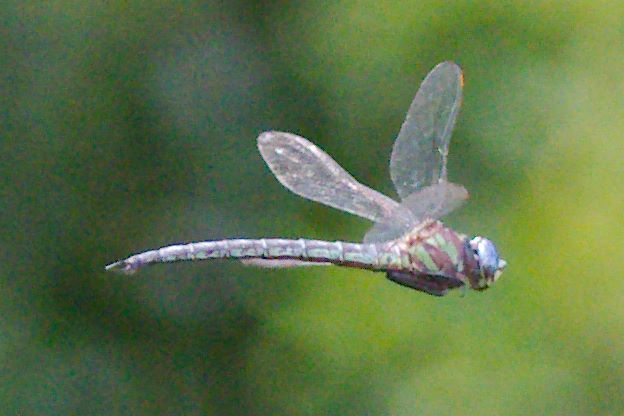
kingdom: Animalia
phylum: Arthropoda
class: Insecta
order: Odonata
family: Aeshnidae
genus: Nasiaeschna
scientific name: Nasiaeschna pentacantha
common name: Cyrano darner
